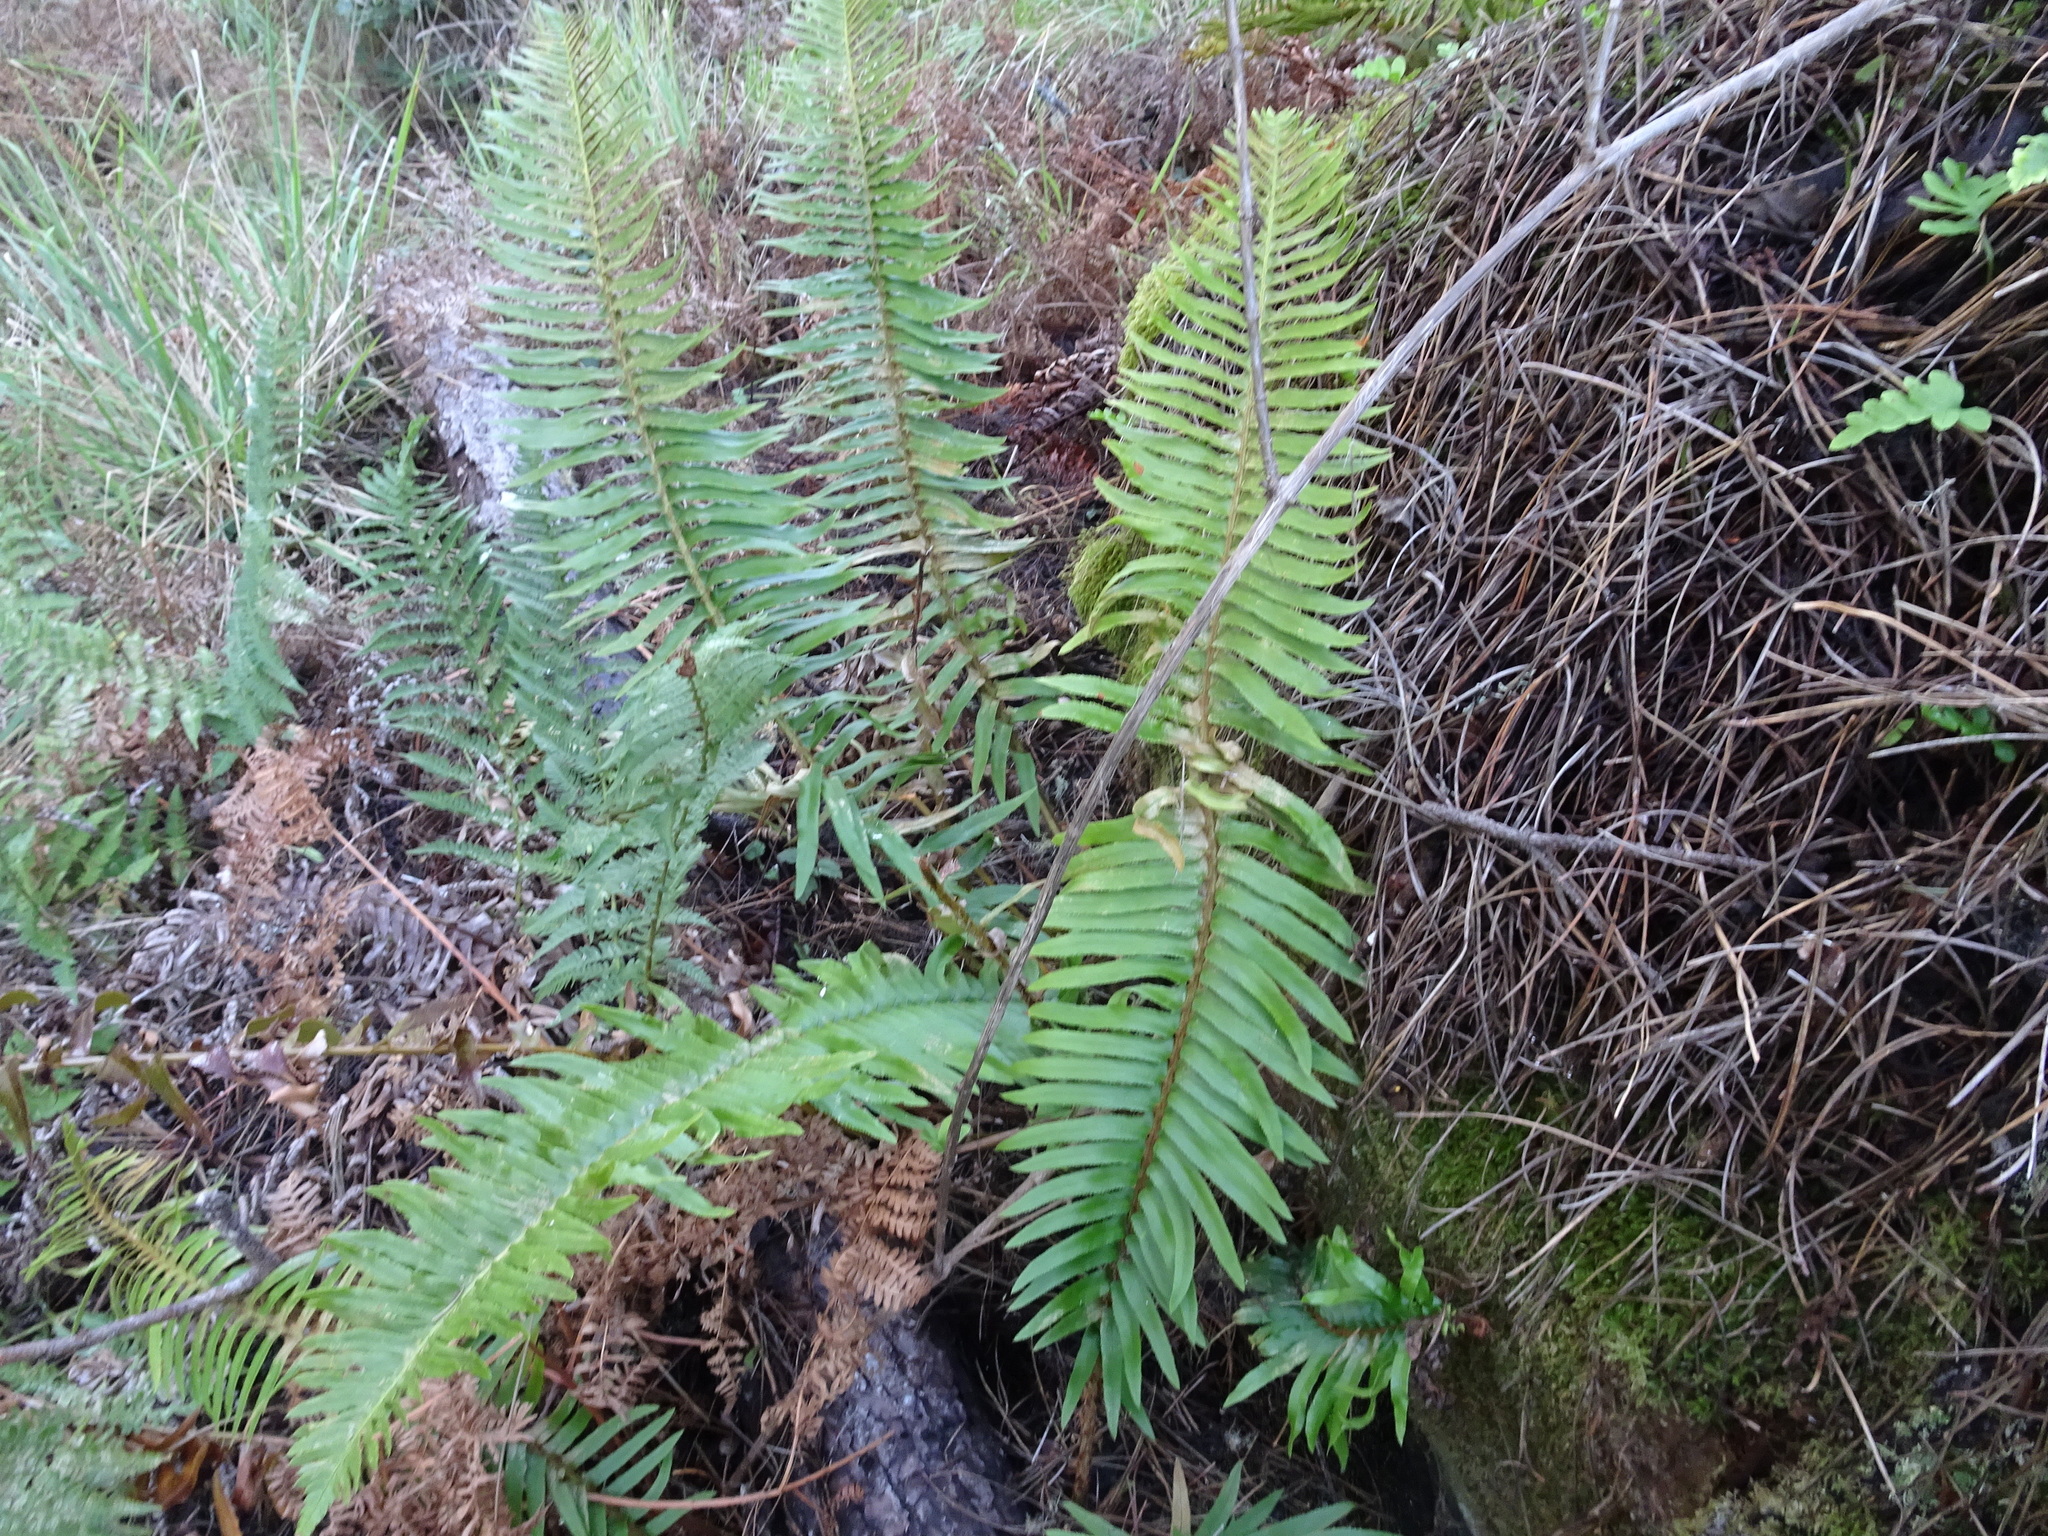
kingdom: Plantae
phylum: Tracheophyta
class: Polypodiopsida
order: Polypodiales
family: Dryopteridaceae
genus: Polystichum
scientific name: Polystichum munitum
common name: Western sword-fern
